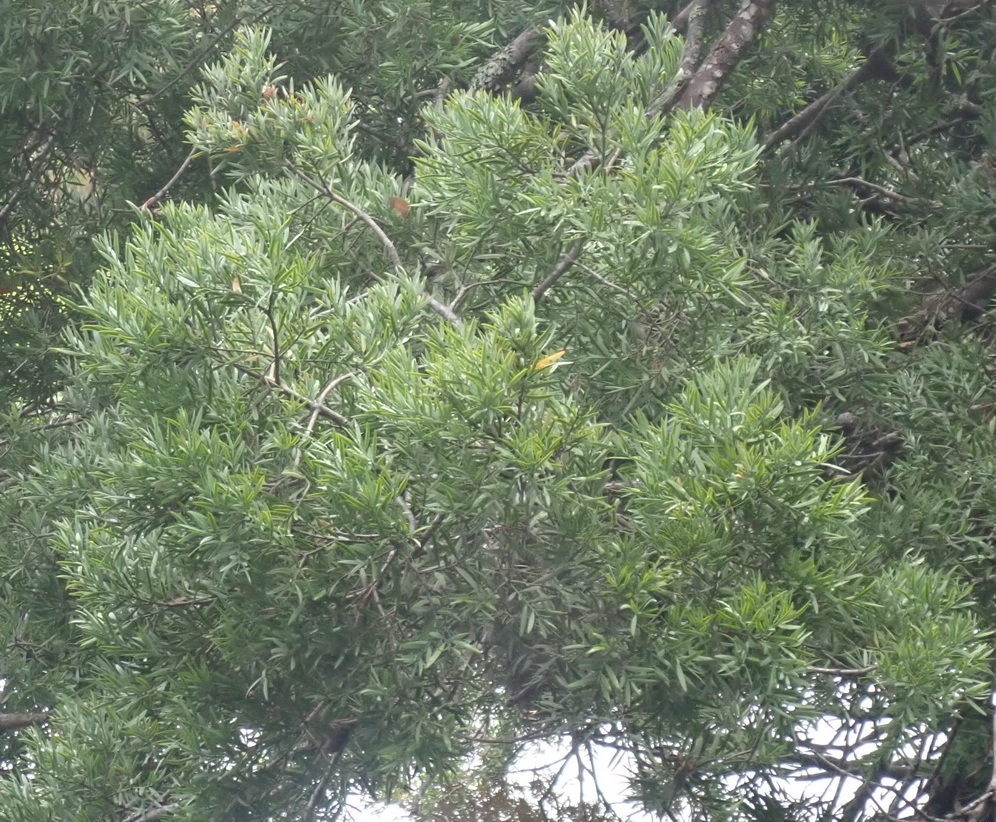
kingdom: Plantae
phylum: Tracheophyta
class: Pinopsida
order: Pinales
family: Podocarpaceae
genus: Afrocarpus
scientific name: Afrocarpus falcatus
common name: Bastard yellowwood
